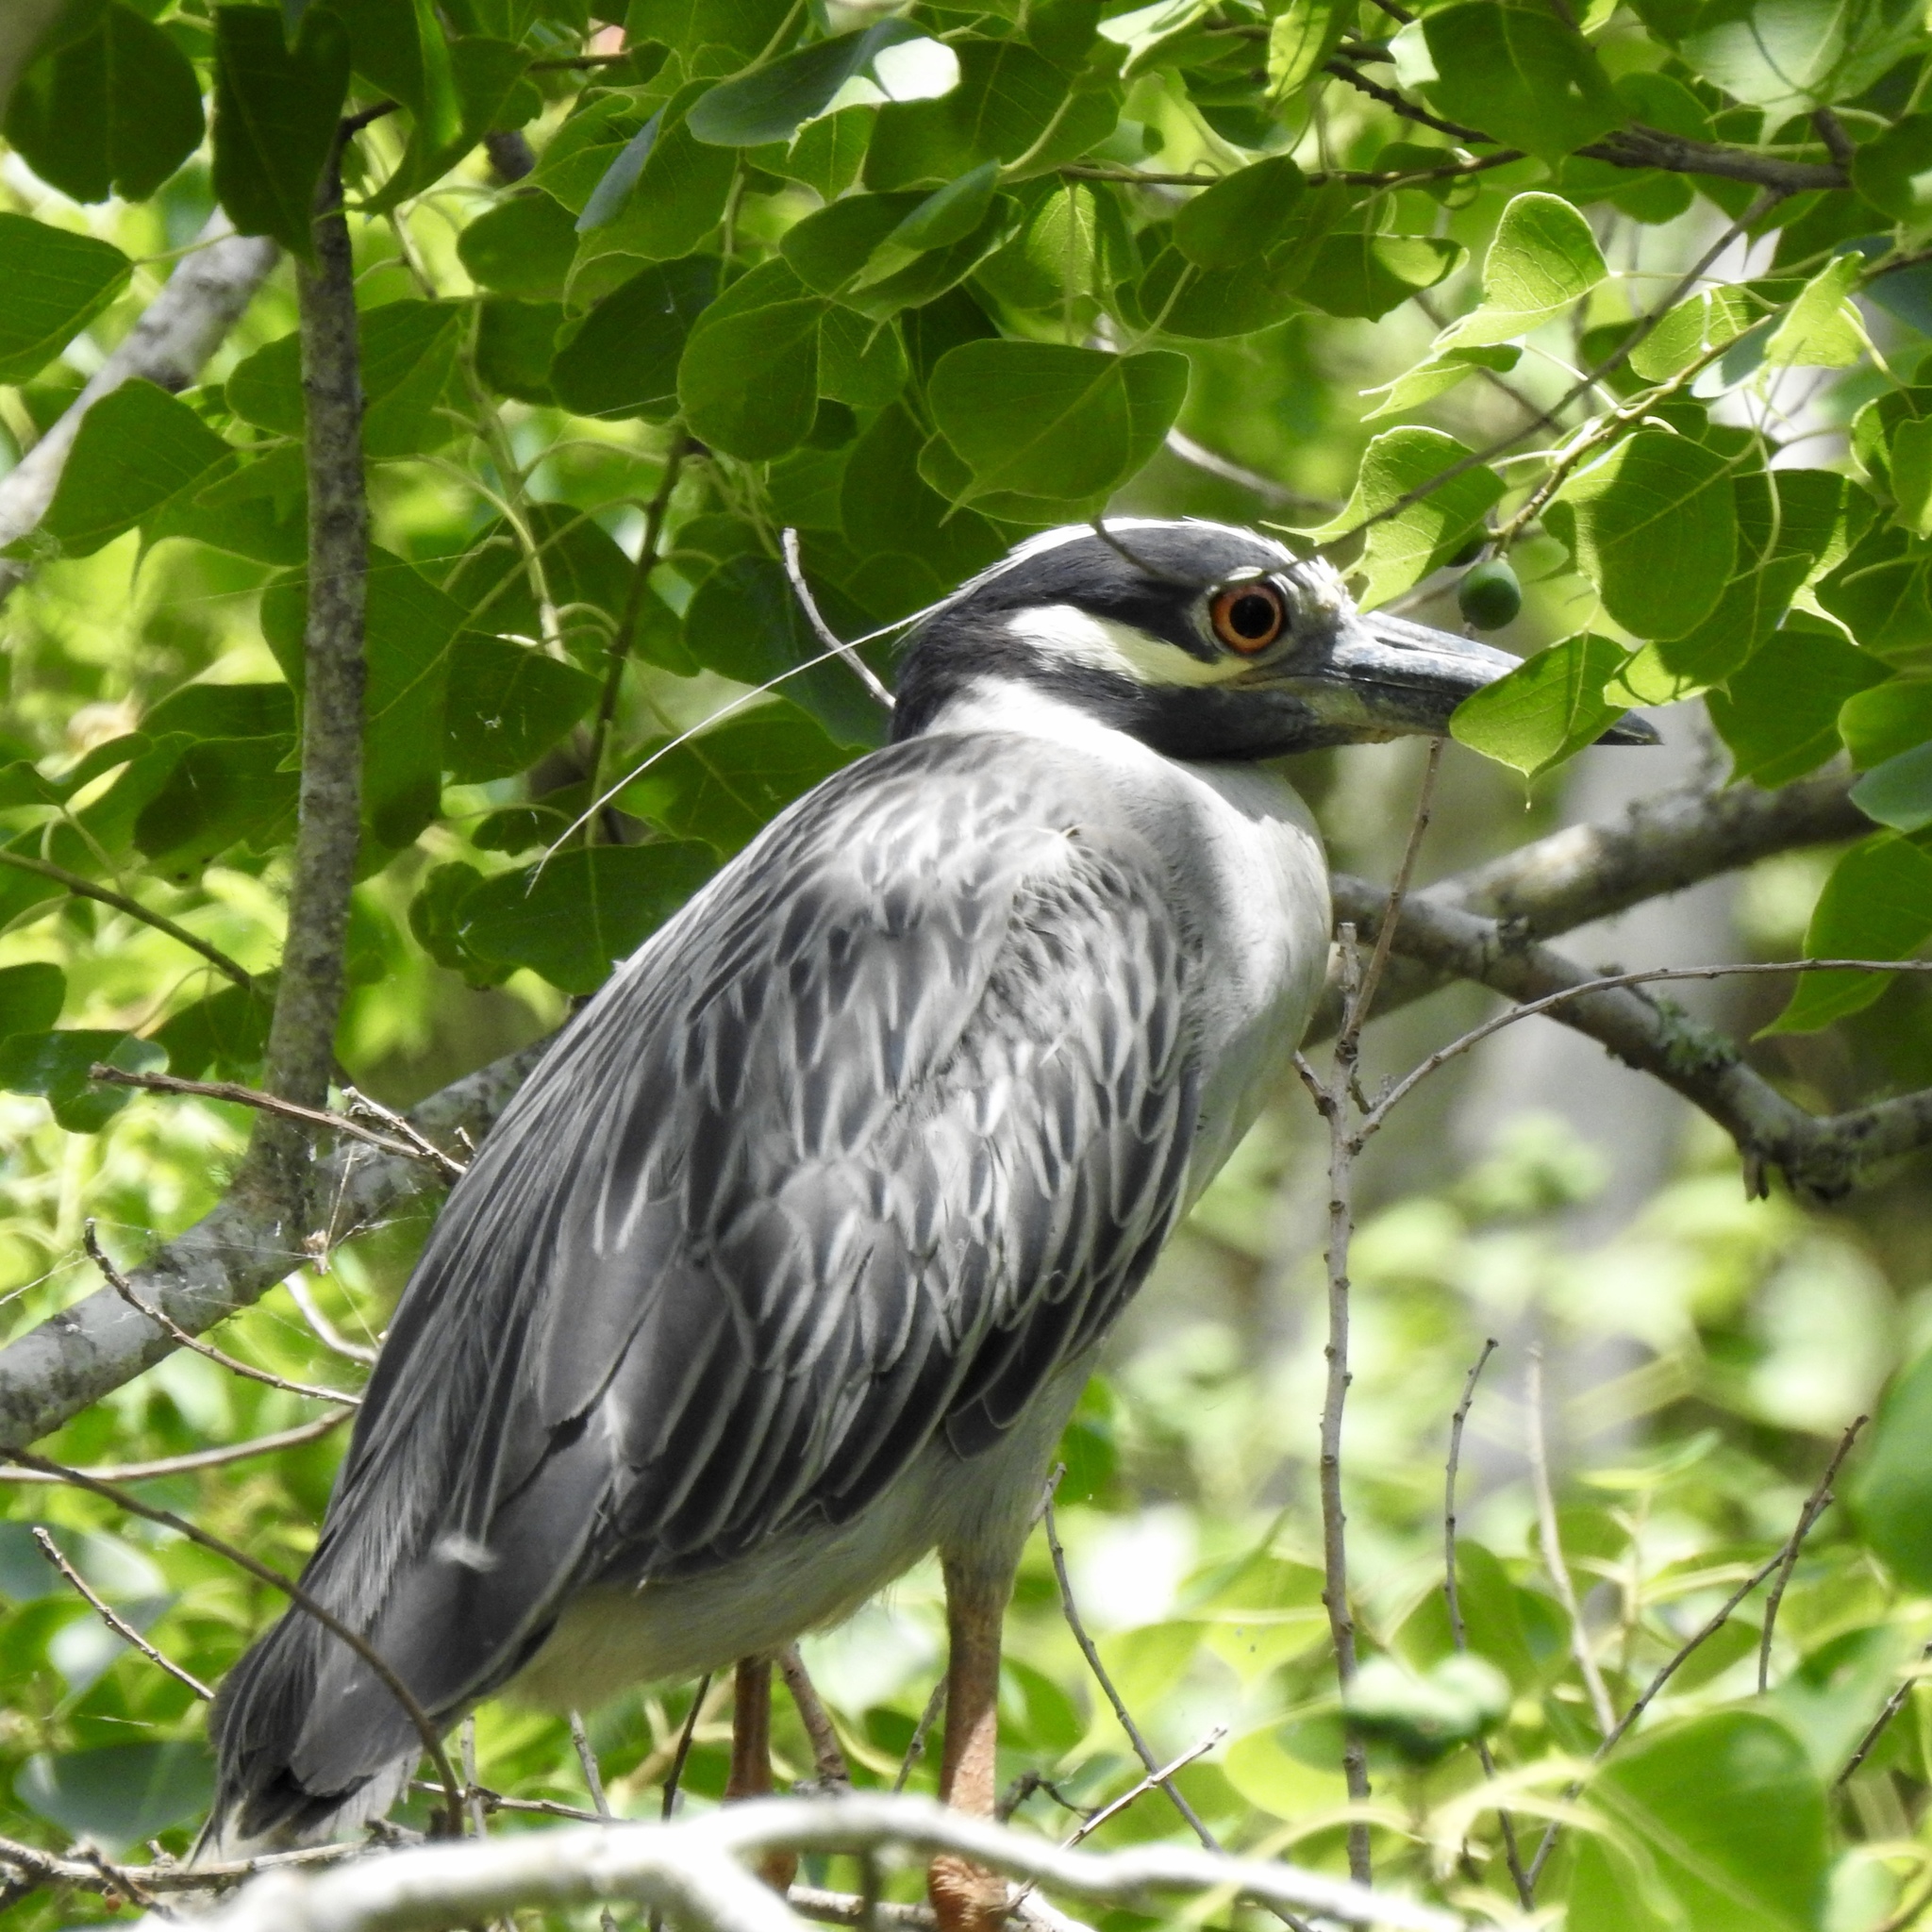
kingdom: Animalia
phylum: Chordata
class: Aves
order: Pelecaniformes
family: Ardeidae
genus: Nyctanassa
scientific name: Nyctanassa violacea
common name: Yellow-crowned night heron
